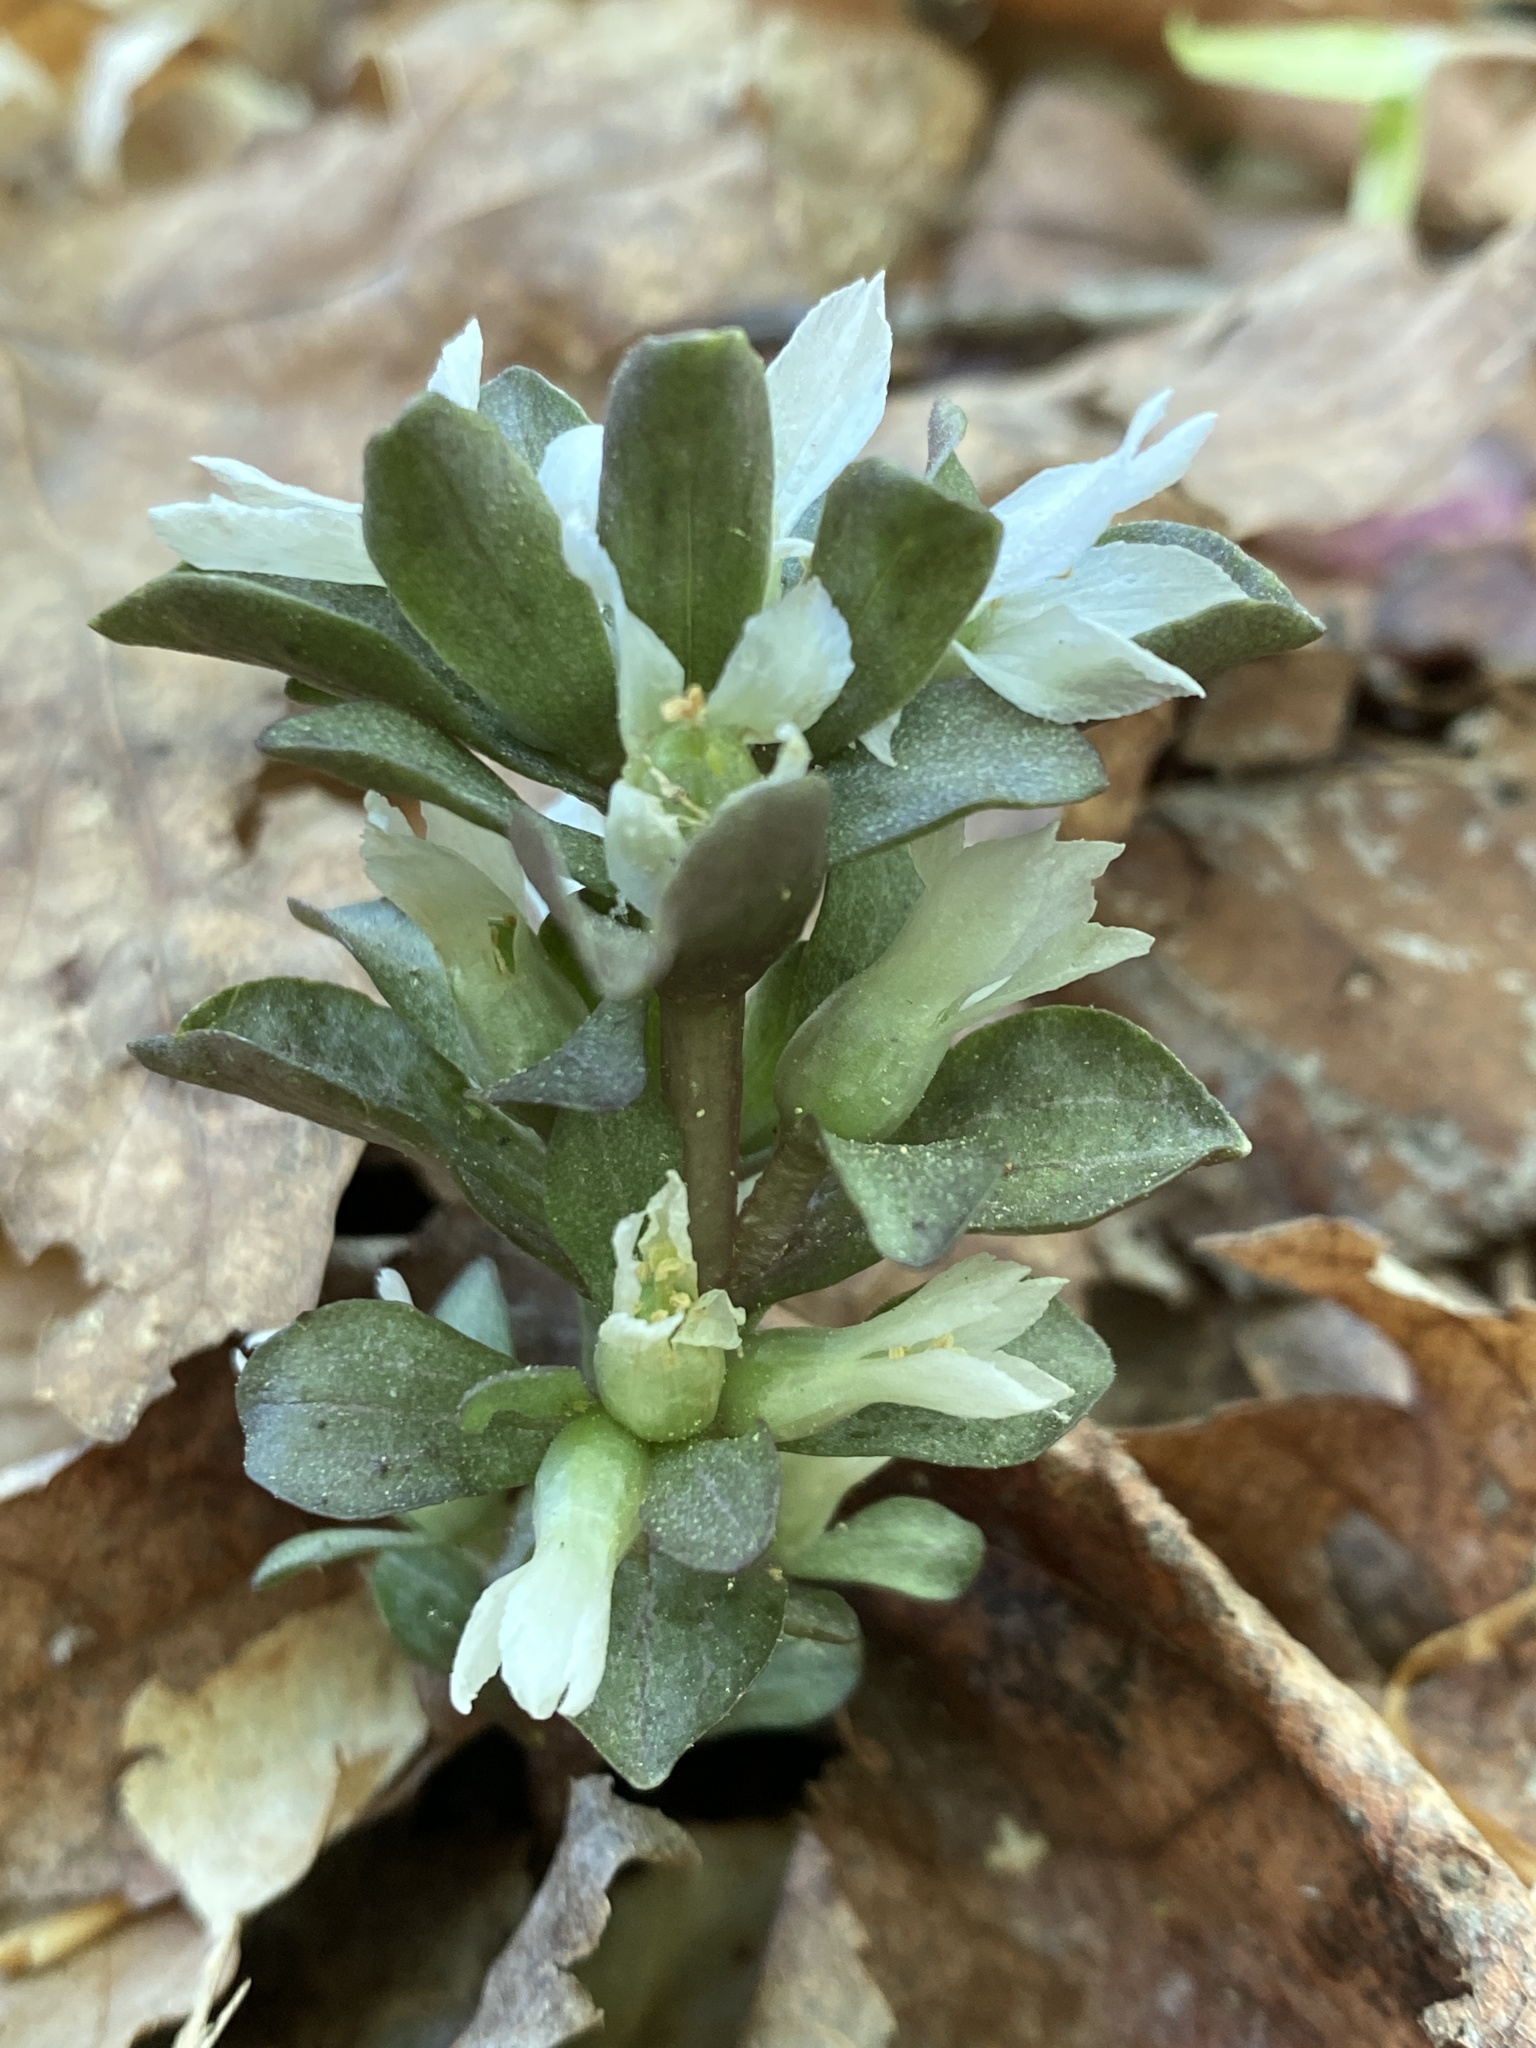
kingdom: Plantae
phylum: Tracheophyta
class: Magnoliopsida
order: Gentianales
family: Gentianaceae
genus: Obolaria
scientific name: Obolaria virginica
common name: Pennywort
